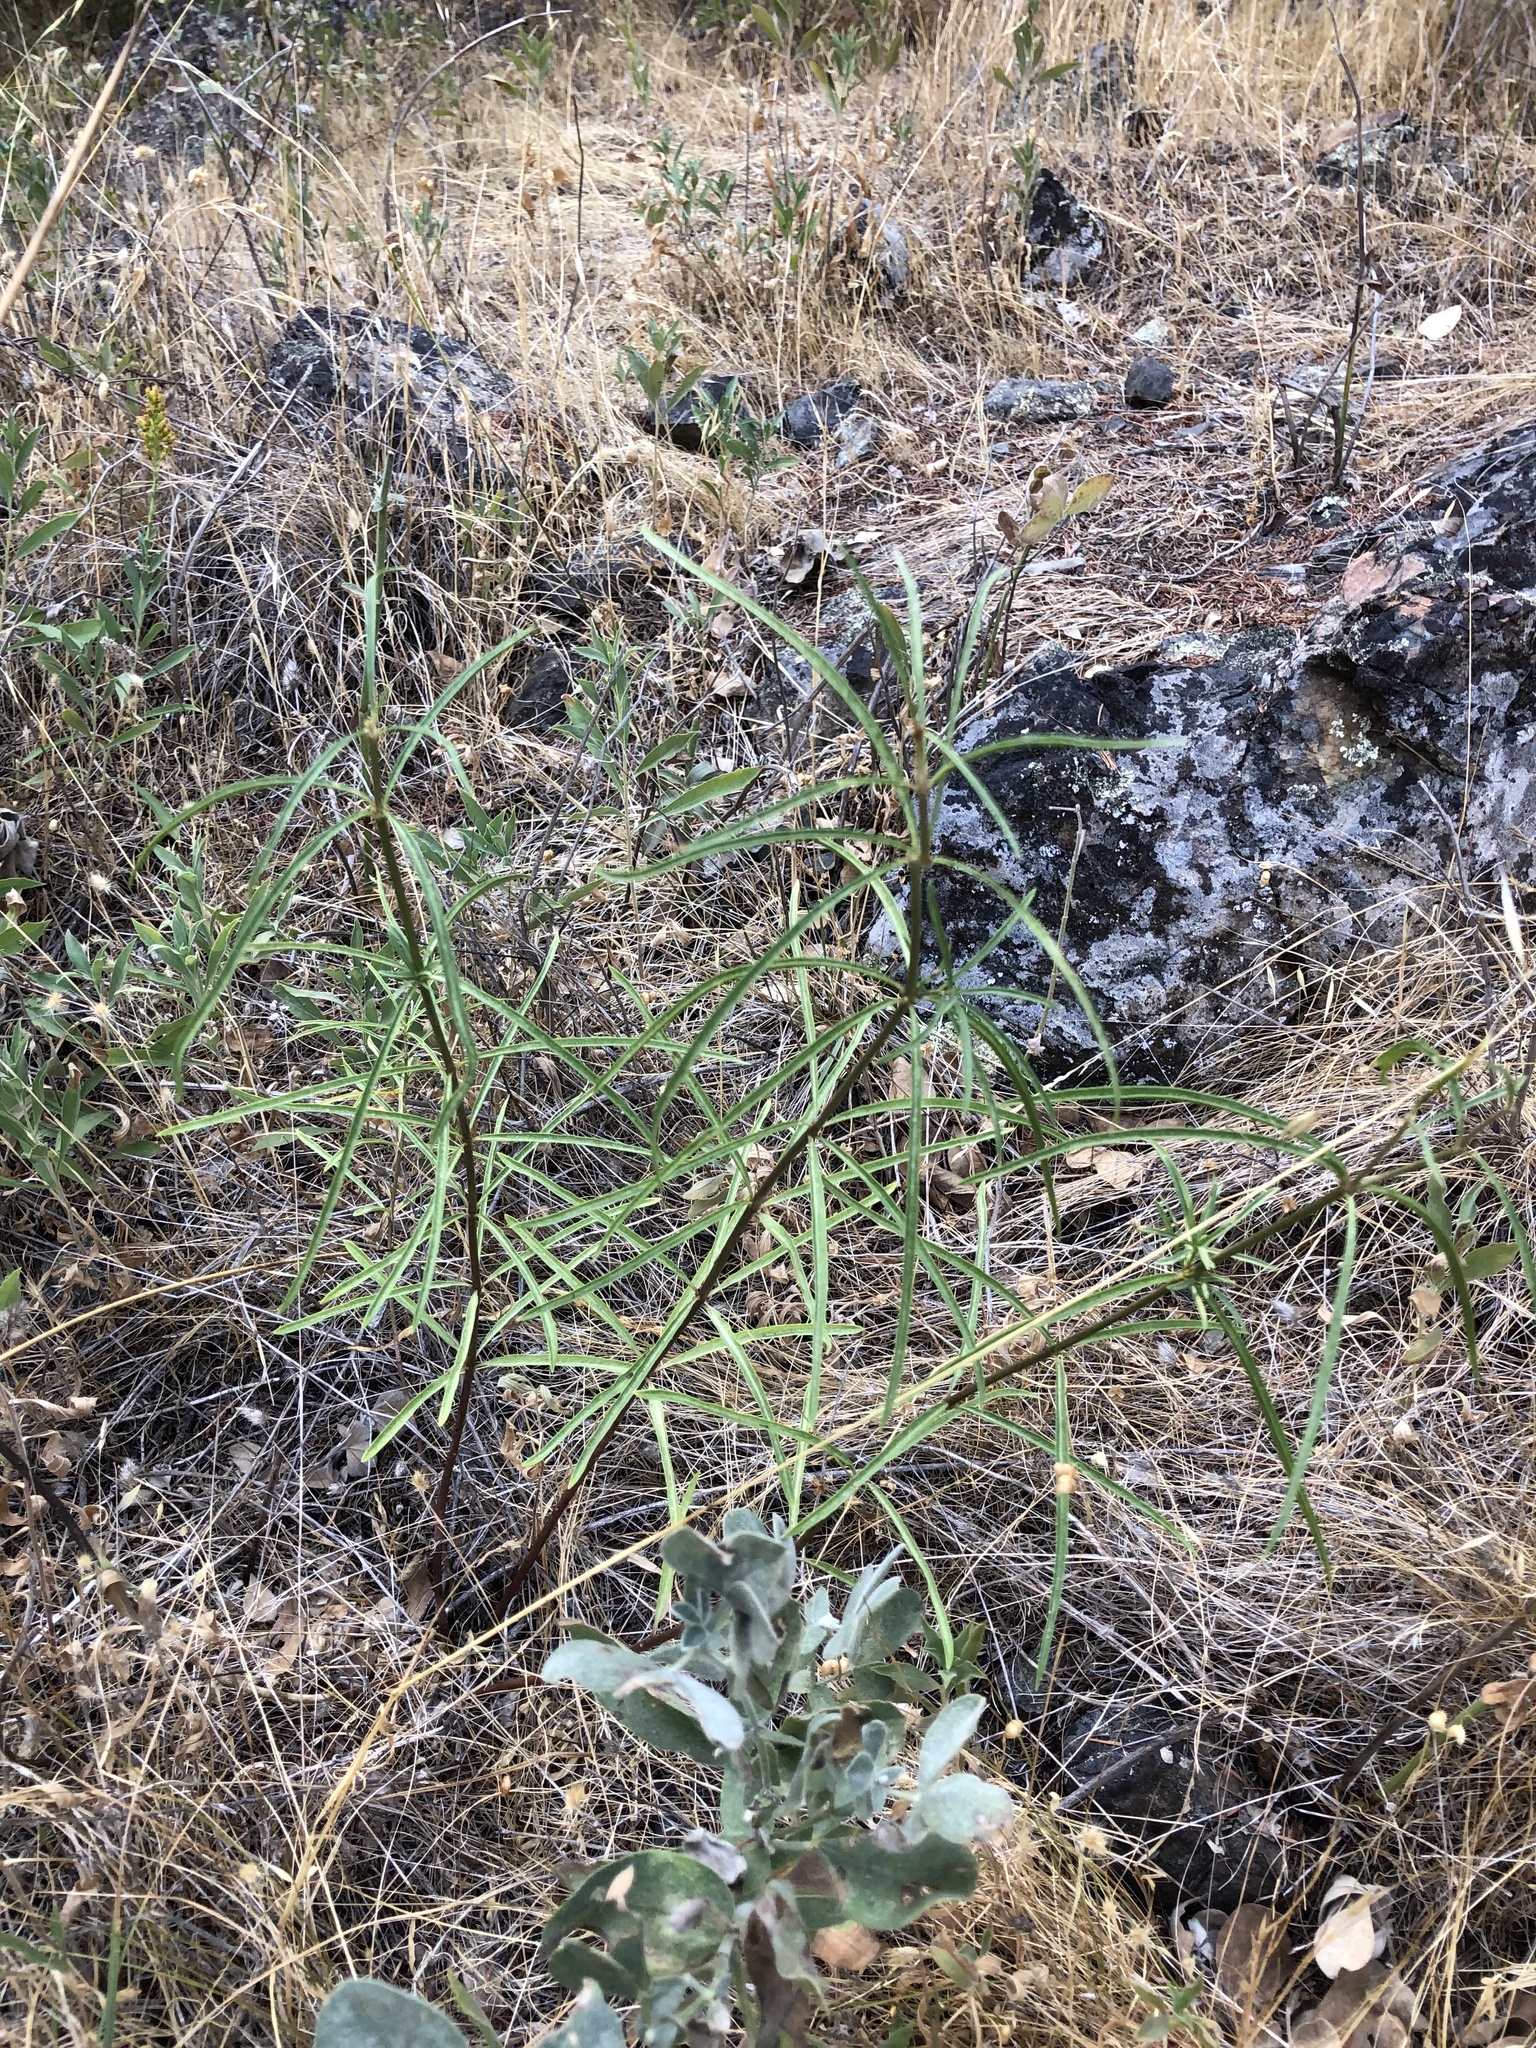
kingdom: Plantae
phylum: Tracheophyta
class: Magnoliopsida
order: Gentianales
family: Apocynaceae
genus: Asclepias
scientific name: Asclepias fascicularis
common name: Mexican milkweed
